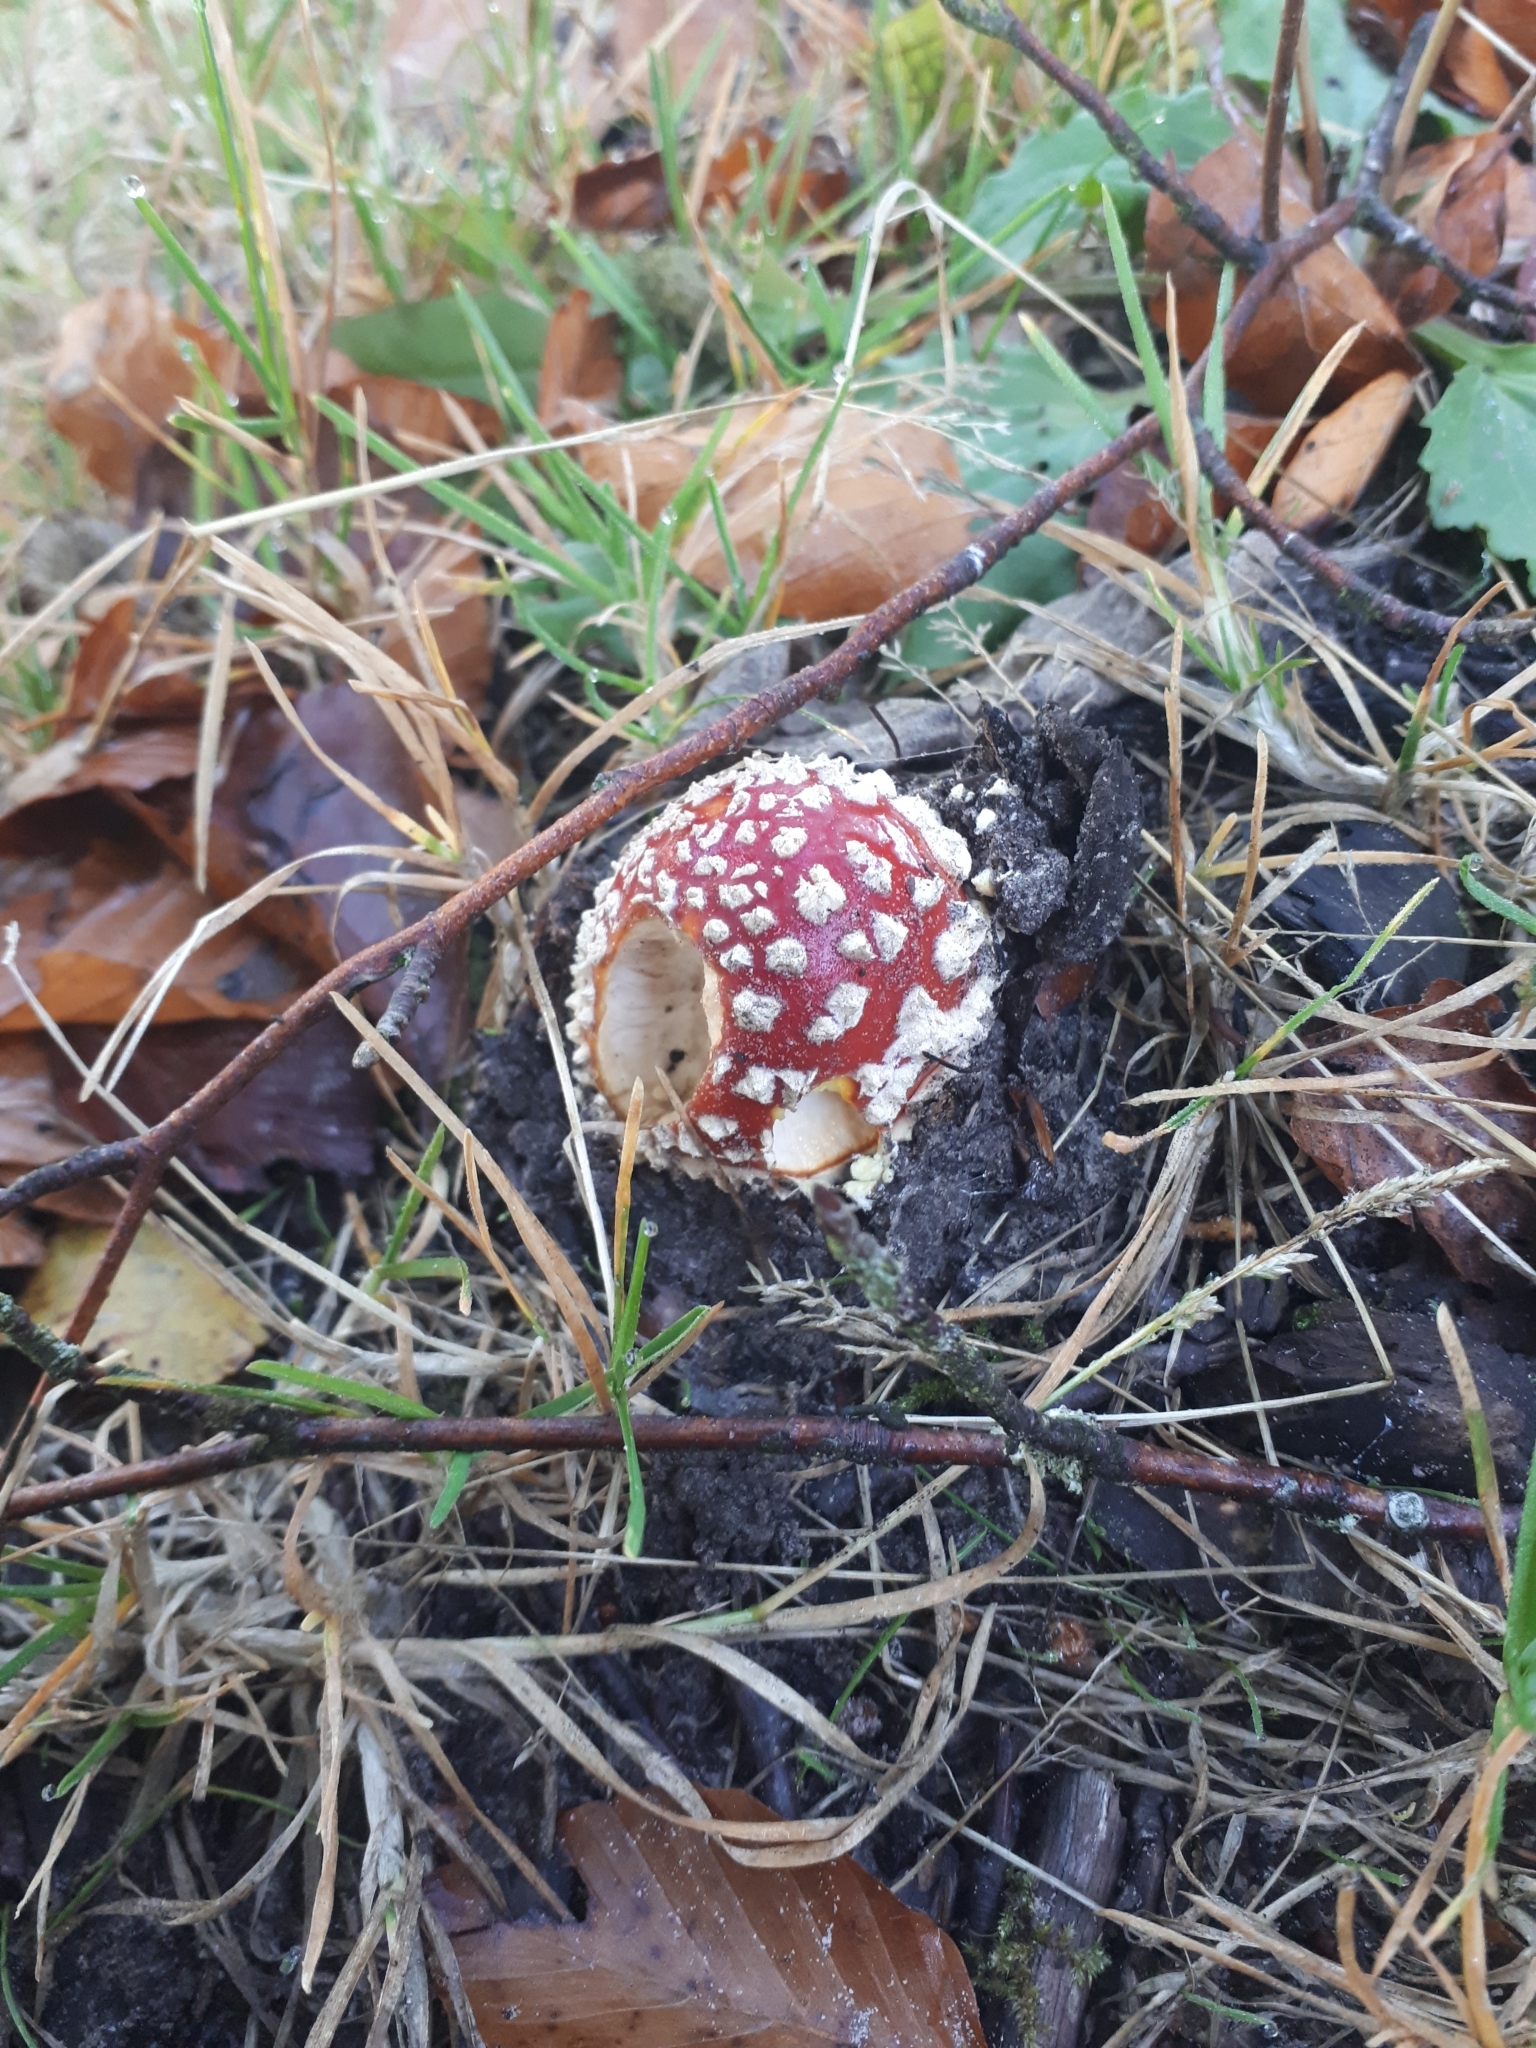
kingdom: Fungi
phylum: Basidiomycota
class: Agaricomycetes
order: Agaricales
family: Amanitaceae
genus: Amanita
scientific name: Amanita muscaria
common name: Fly agaric
